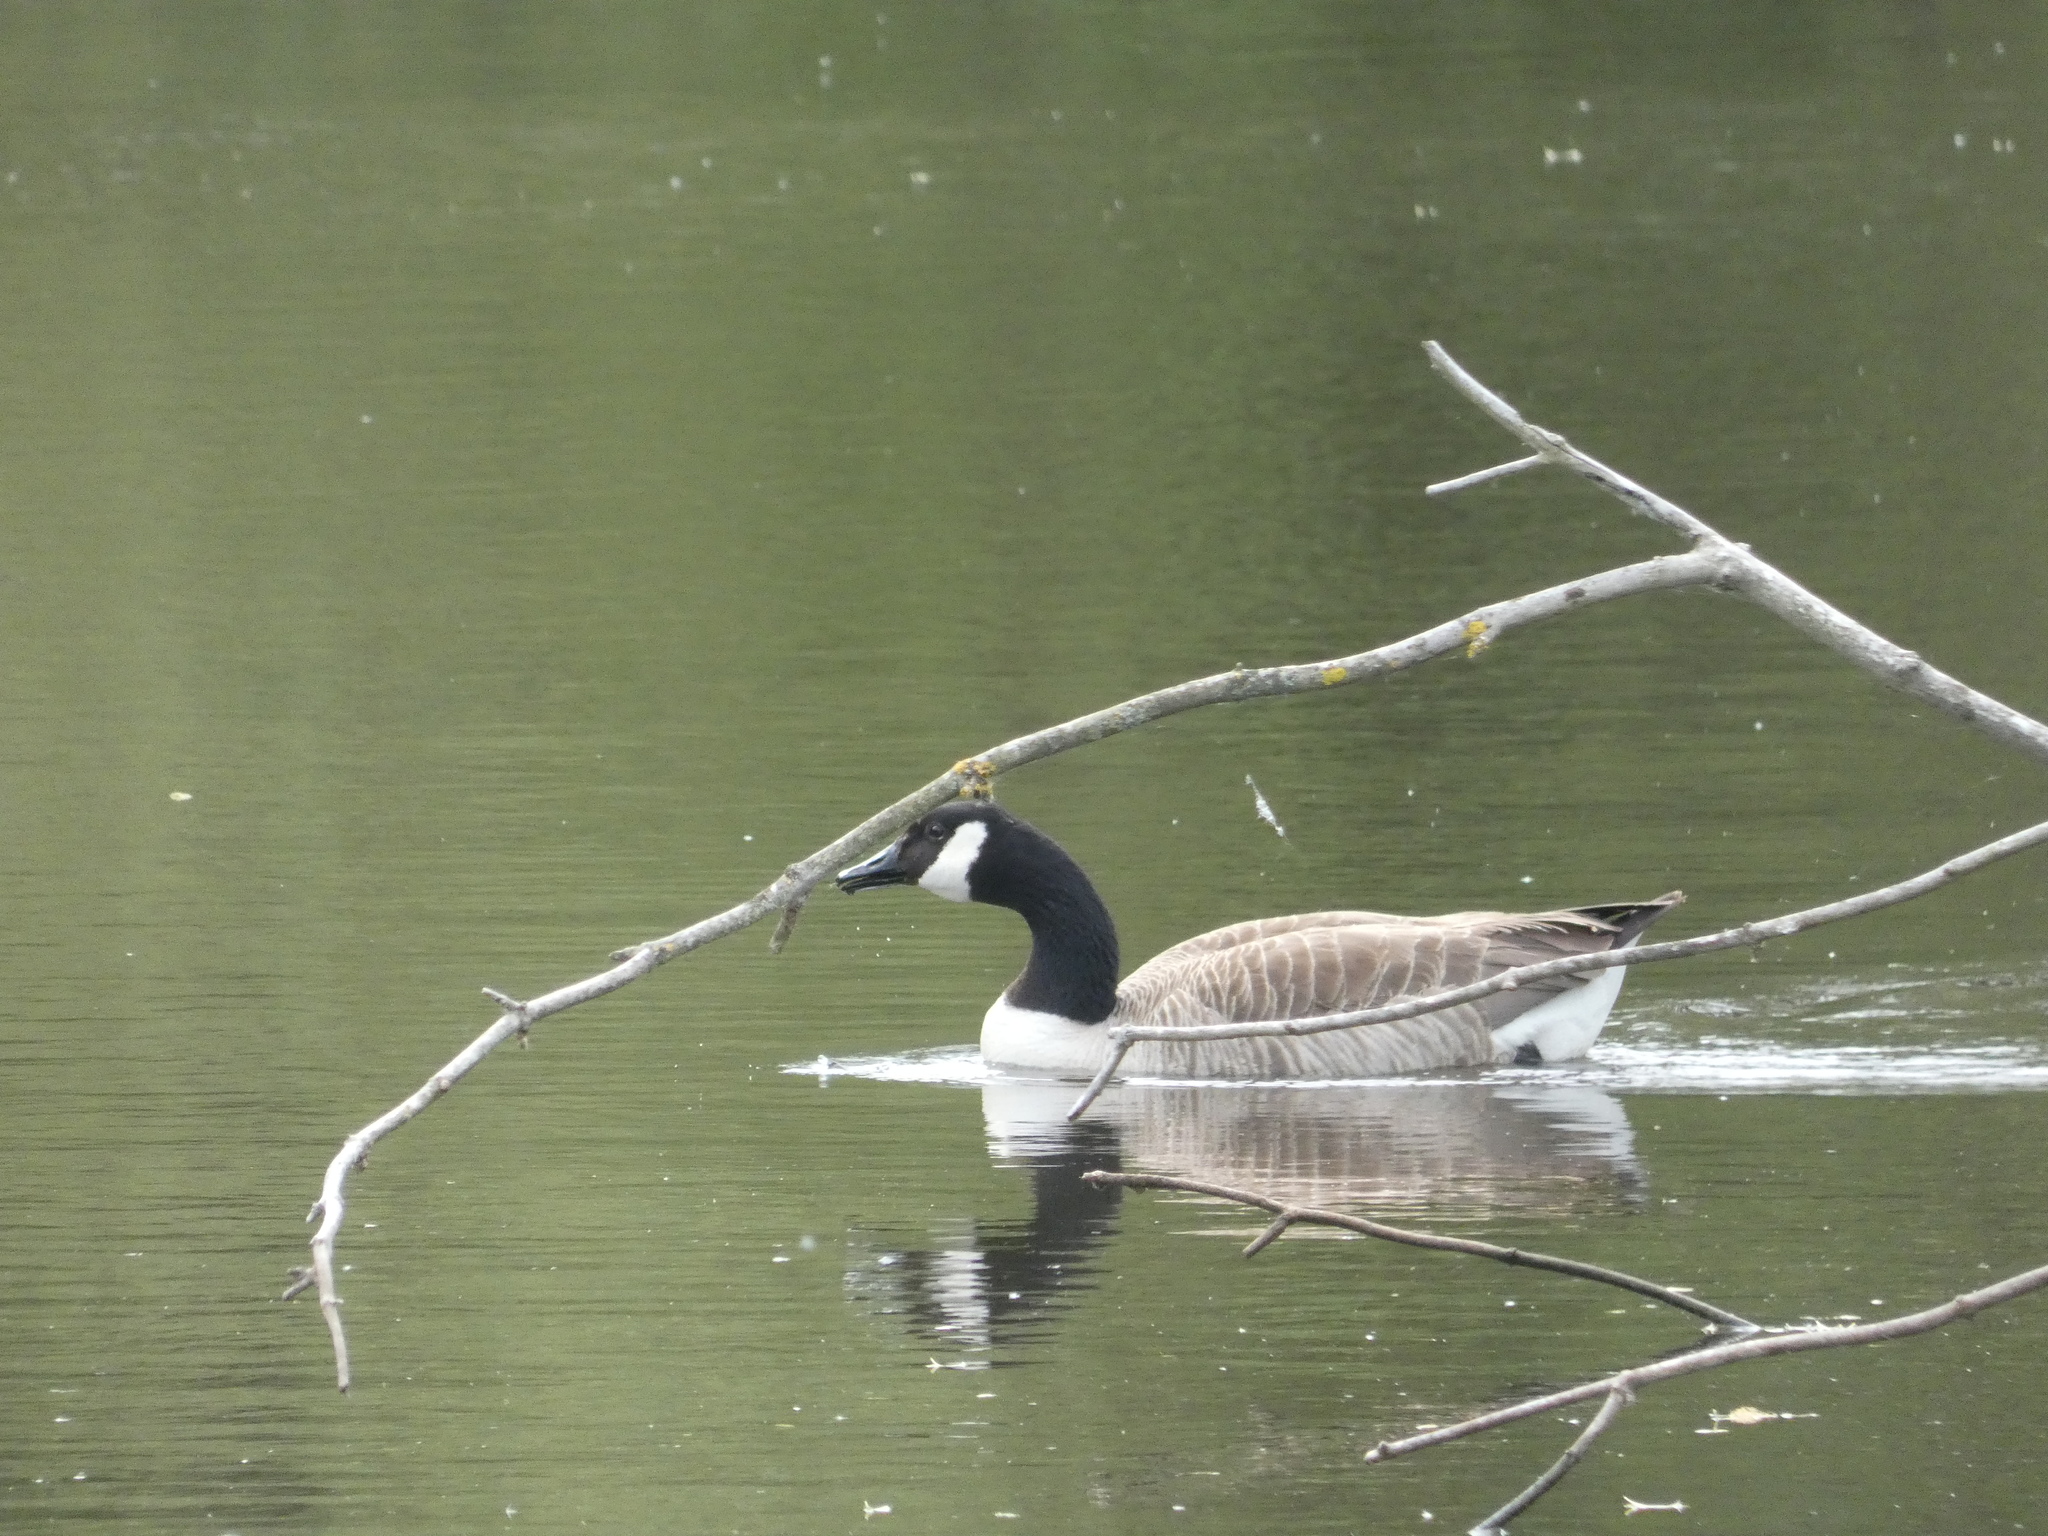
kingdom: Animalia
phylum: Chordata
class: Aves
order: Anseriformes
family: Anatidae
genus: Branta
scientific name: Branta canadensis
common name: Canada goose
